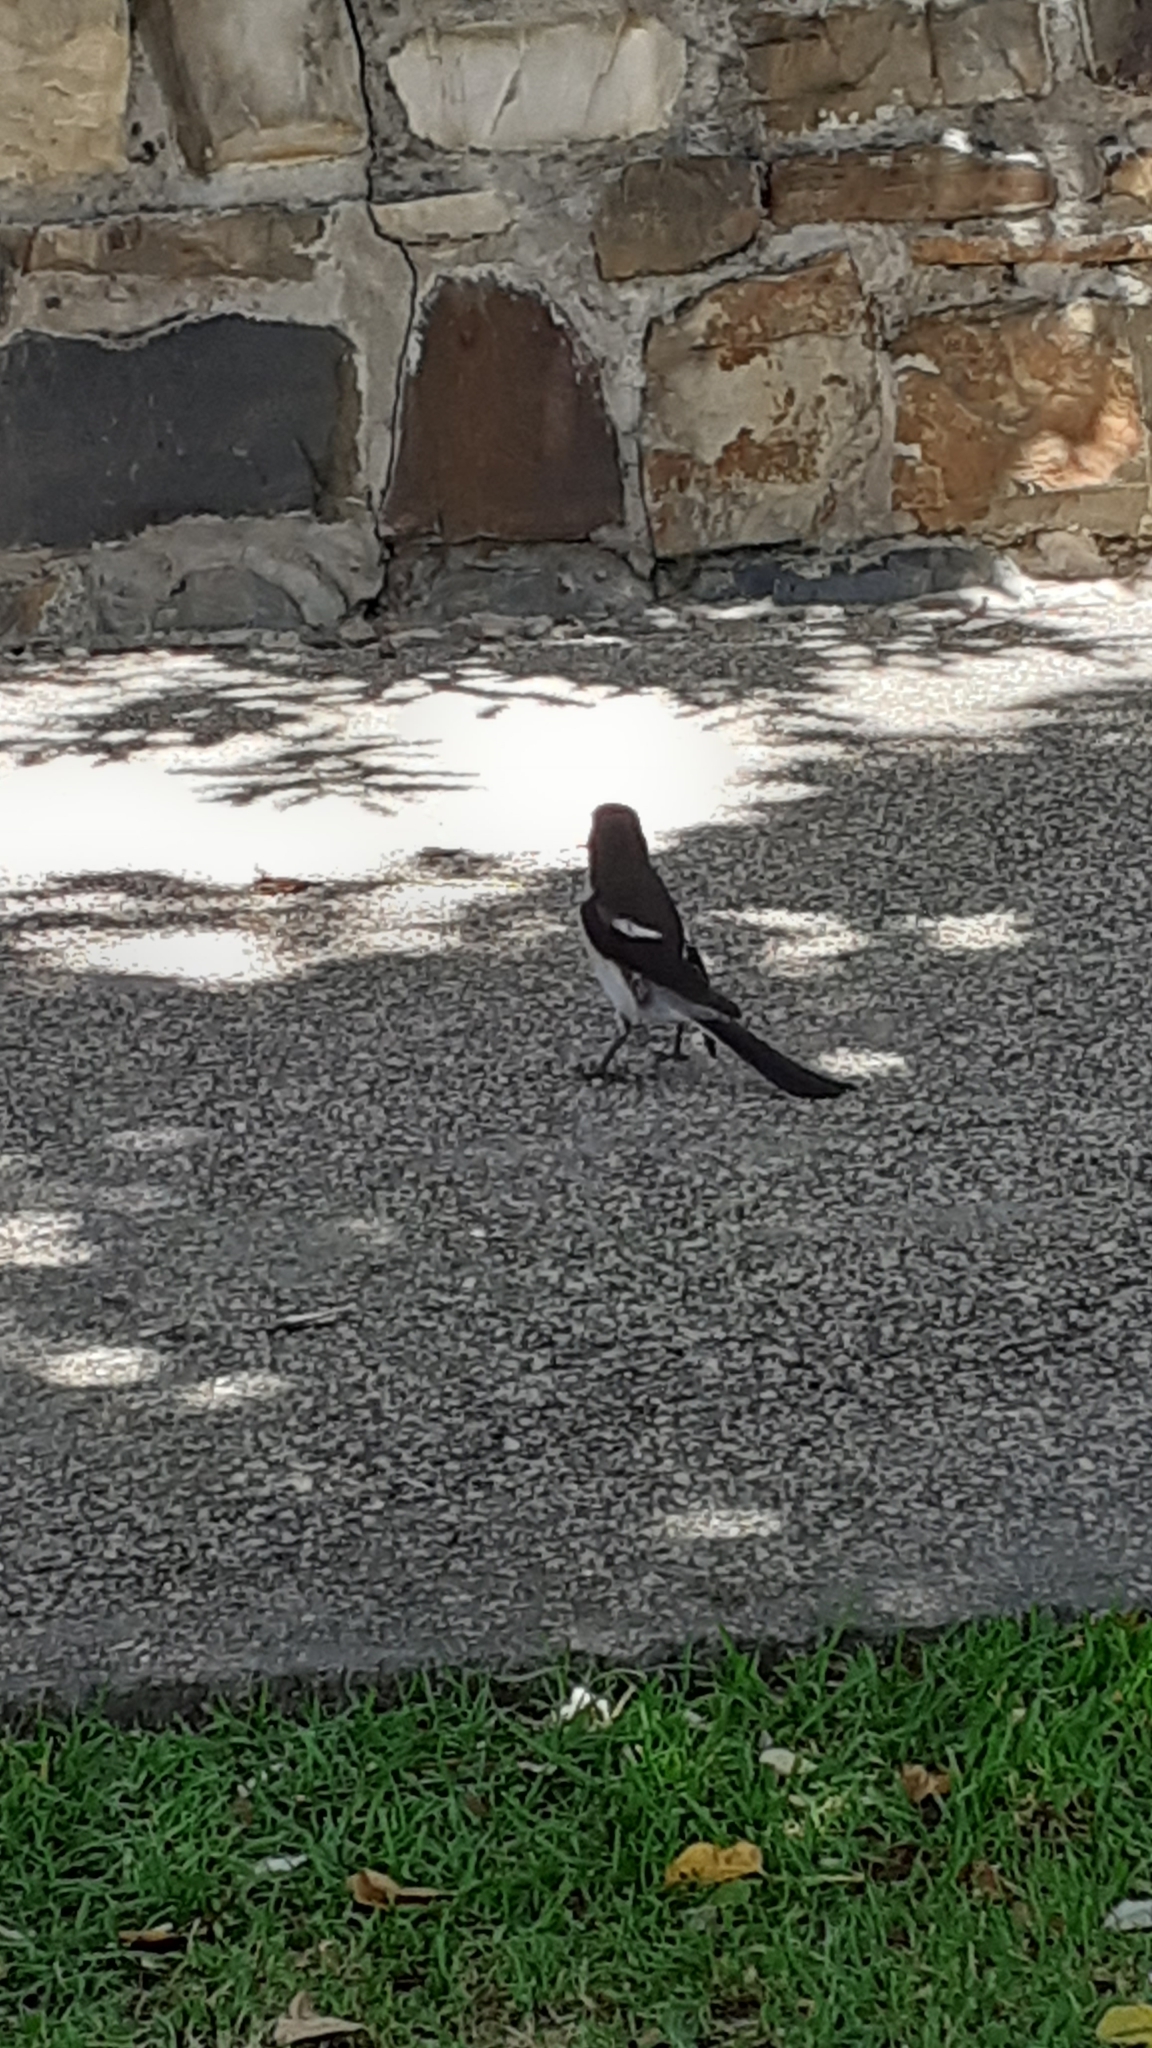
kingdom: Animalia
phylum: Chordata
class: Aves
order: Passeriformes
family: Laniidae
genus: Lanius
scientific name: Lanius collaris
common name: Southern fiscal
